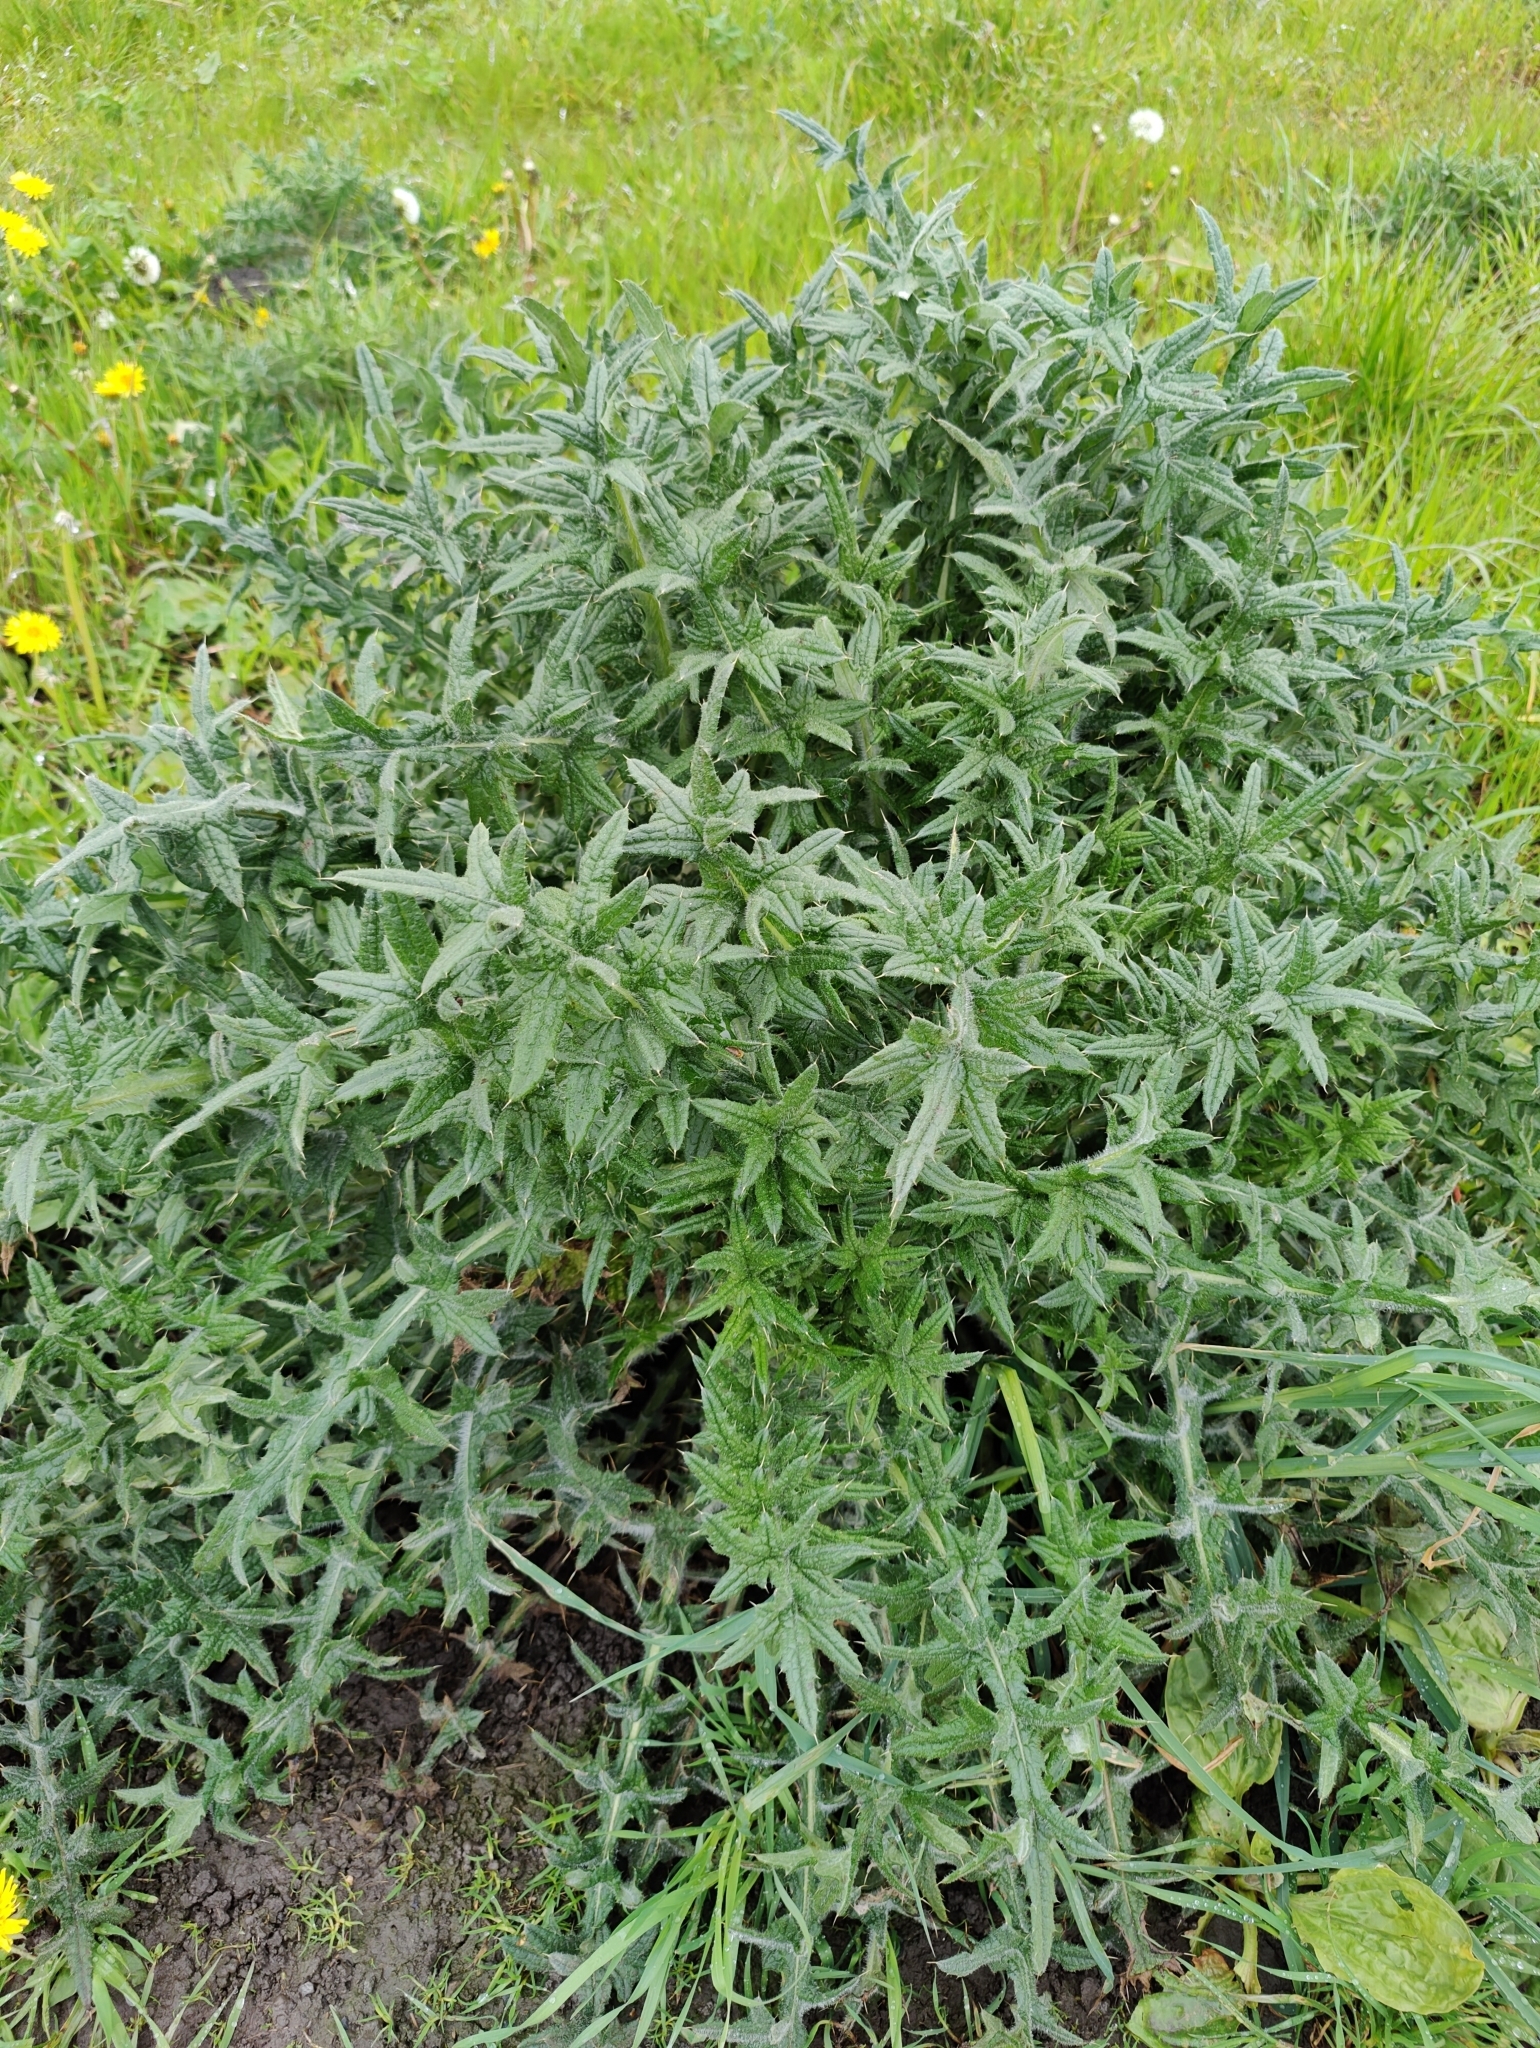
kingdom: Plantae
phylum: Tracheophyta
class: Magnoliopsida
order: Asterales
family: Asteraceae
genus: Cirsium
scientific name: Cirsium vulgare
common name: Bull thistle
